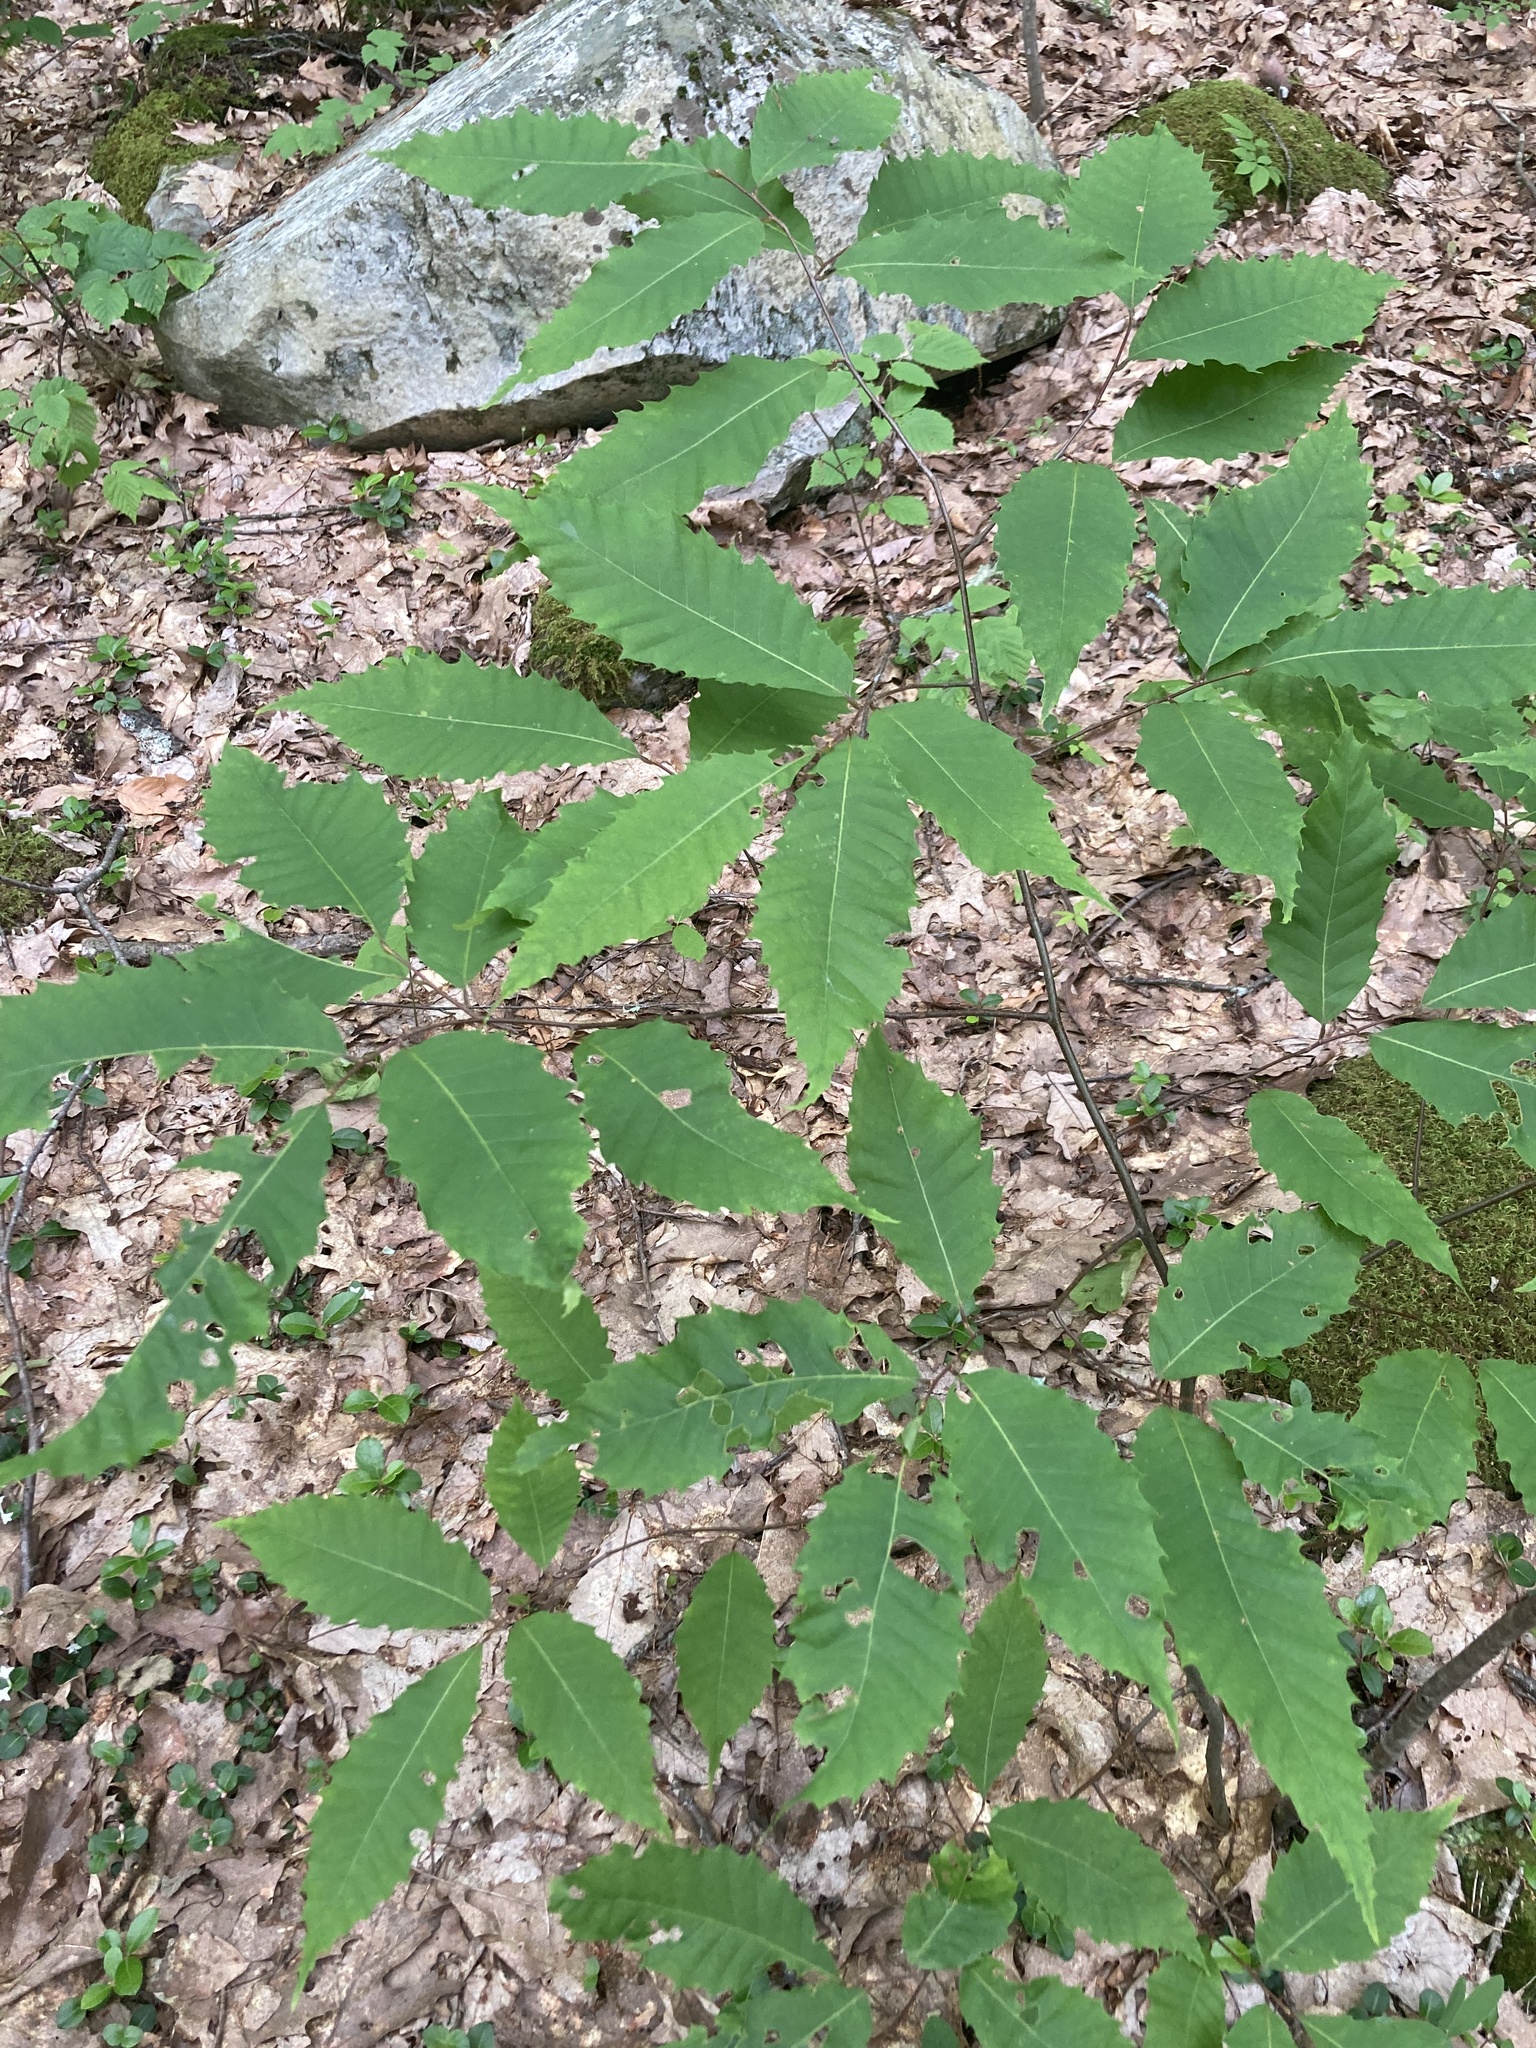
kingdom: Plantae
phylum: Tracheophyta
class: Magnoliopsida
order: Fagales
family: Fagaceae
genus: Castanea
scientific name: Castanea dentata
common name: American chestnut
